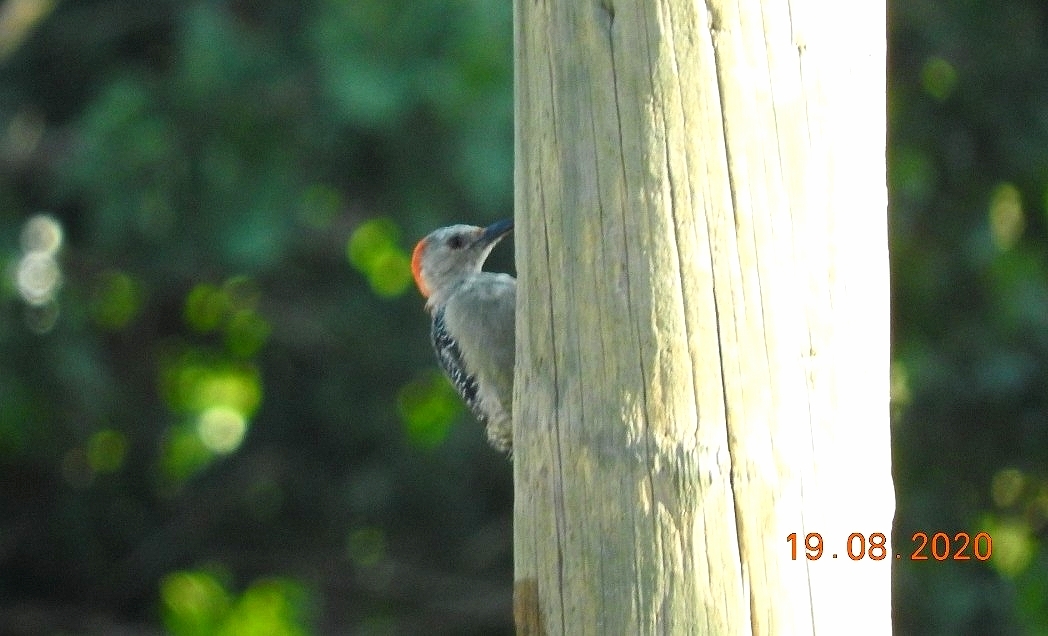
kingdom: Animalia
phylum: Chordata
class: Aves
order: Piciformes
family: Picidae
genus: Melanerpes
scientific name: Melanerpes aurifrons
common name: Golden-fronted woodpecker
